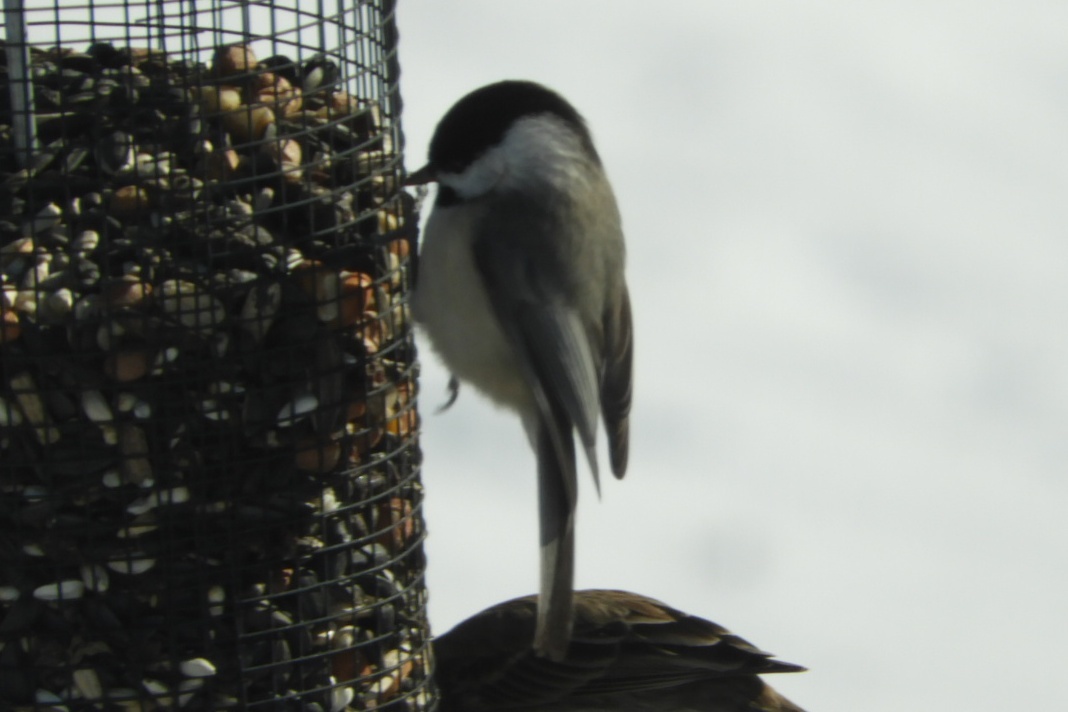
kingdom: Animalia
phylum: Chordata
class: Aves
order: Passeriformes
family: Paridae
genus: Poecile
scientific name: Poecile carolinensis
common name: Carolina chickadee
